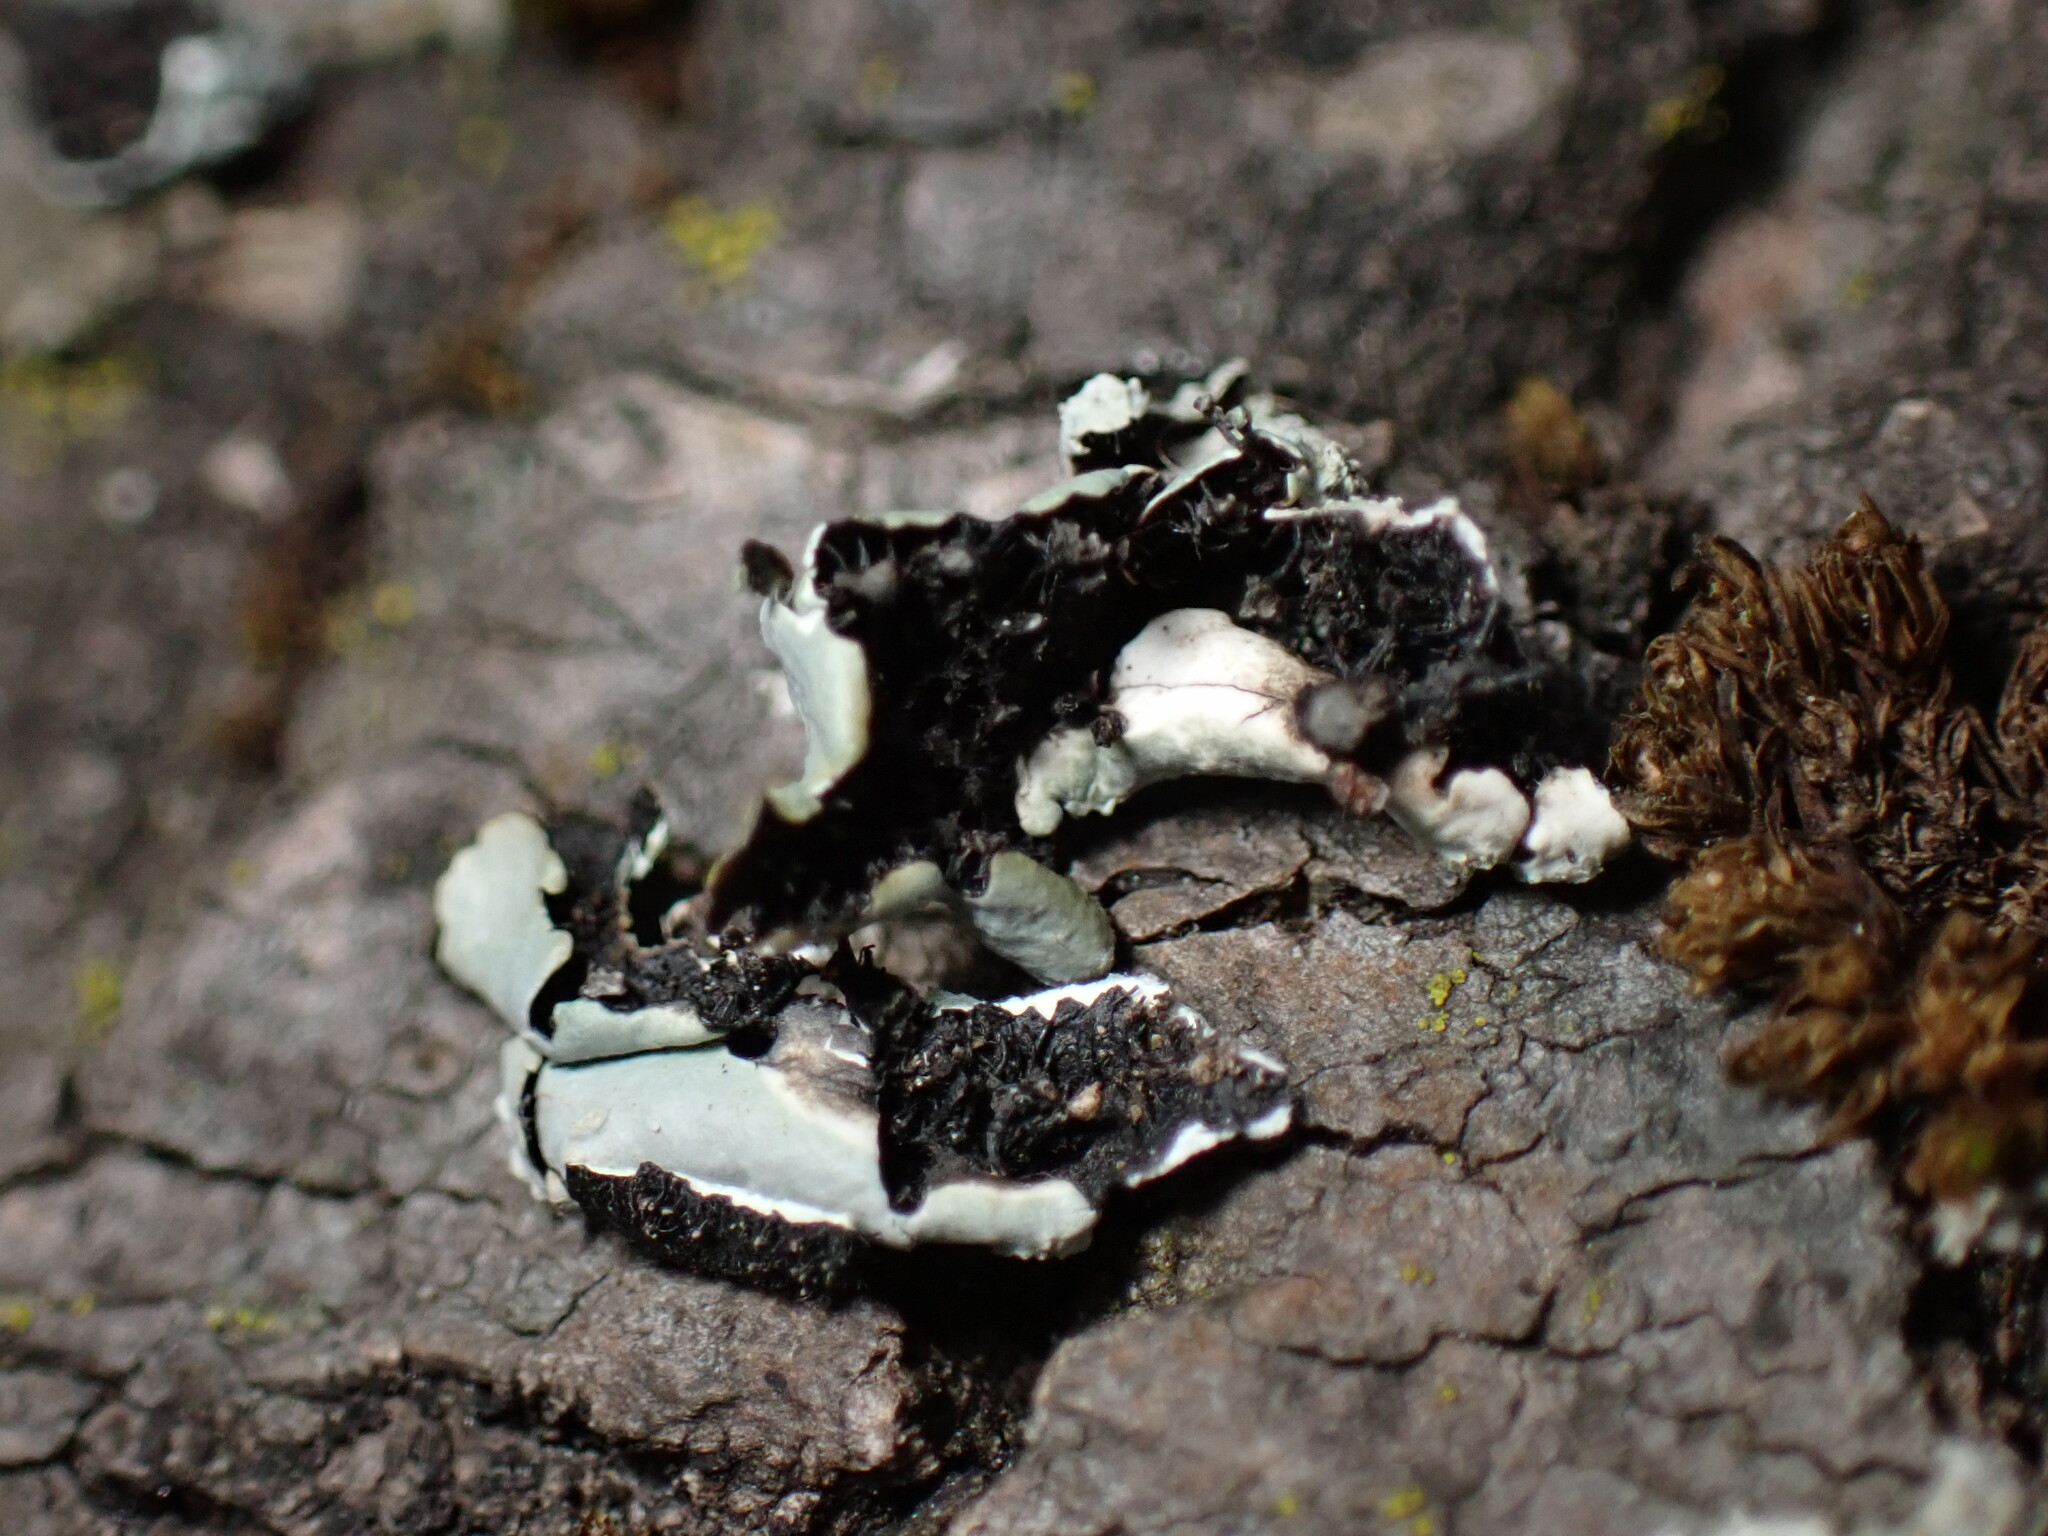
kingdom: Fungi
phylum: Ascomycota
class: Lecanoromycetes
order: Lecanorales
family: Parmeliaceae
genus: Myelochroa
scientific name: Myelochroa aurulenta
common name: Powdery axil-bristle lichen
